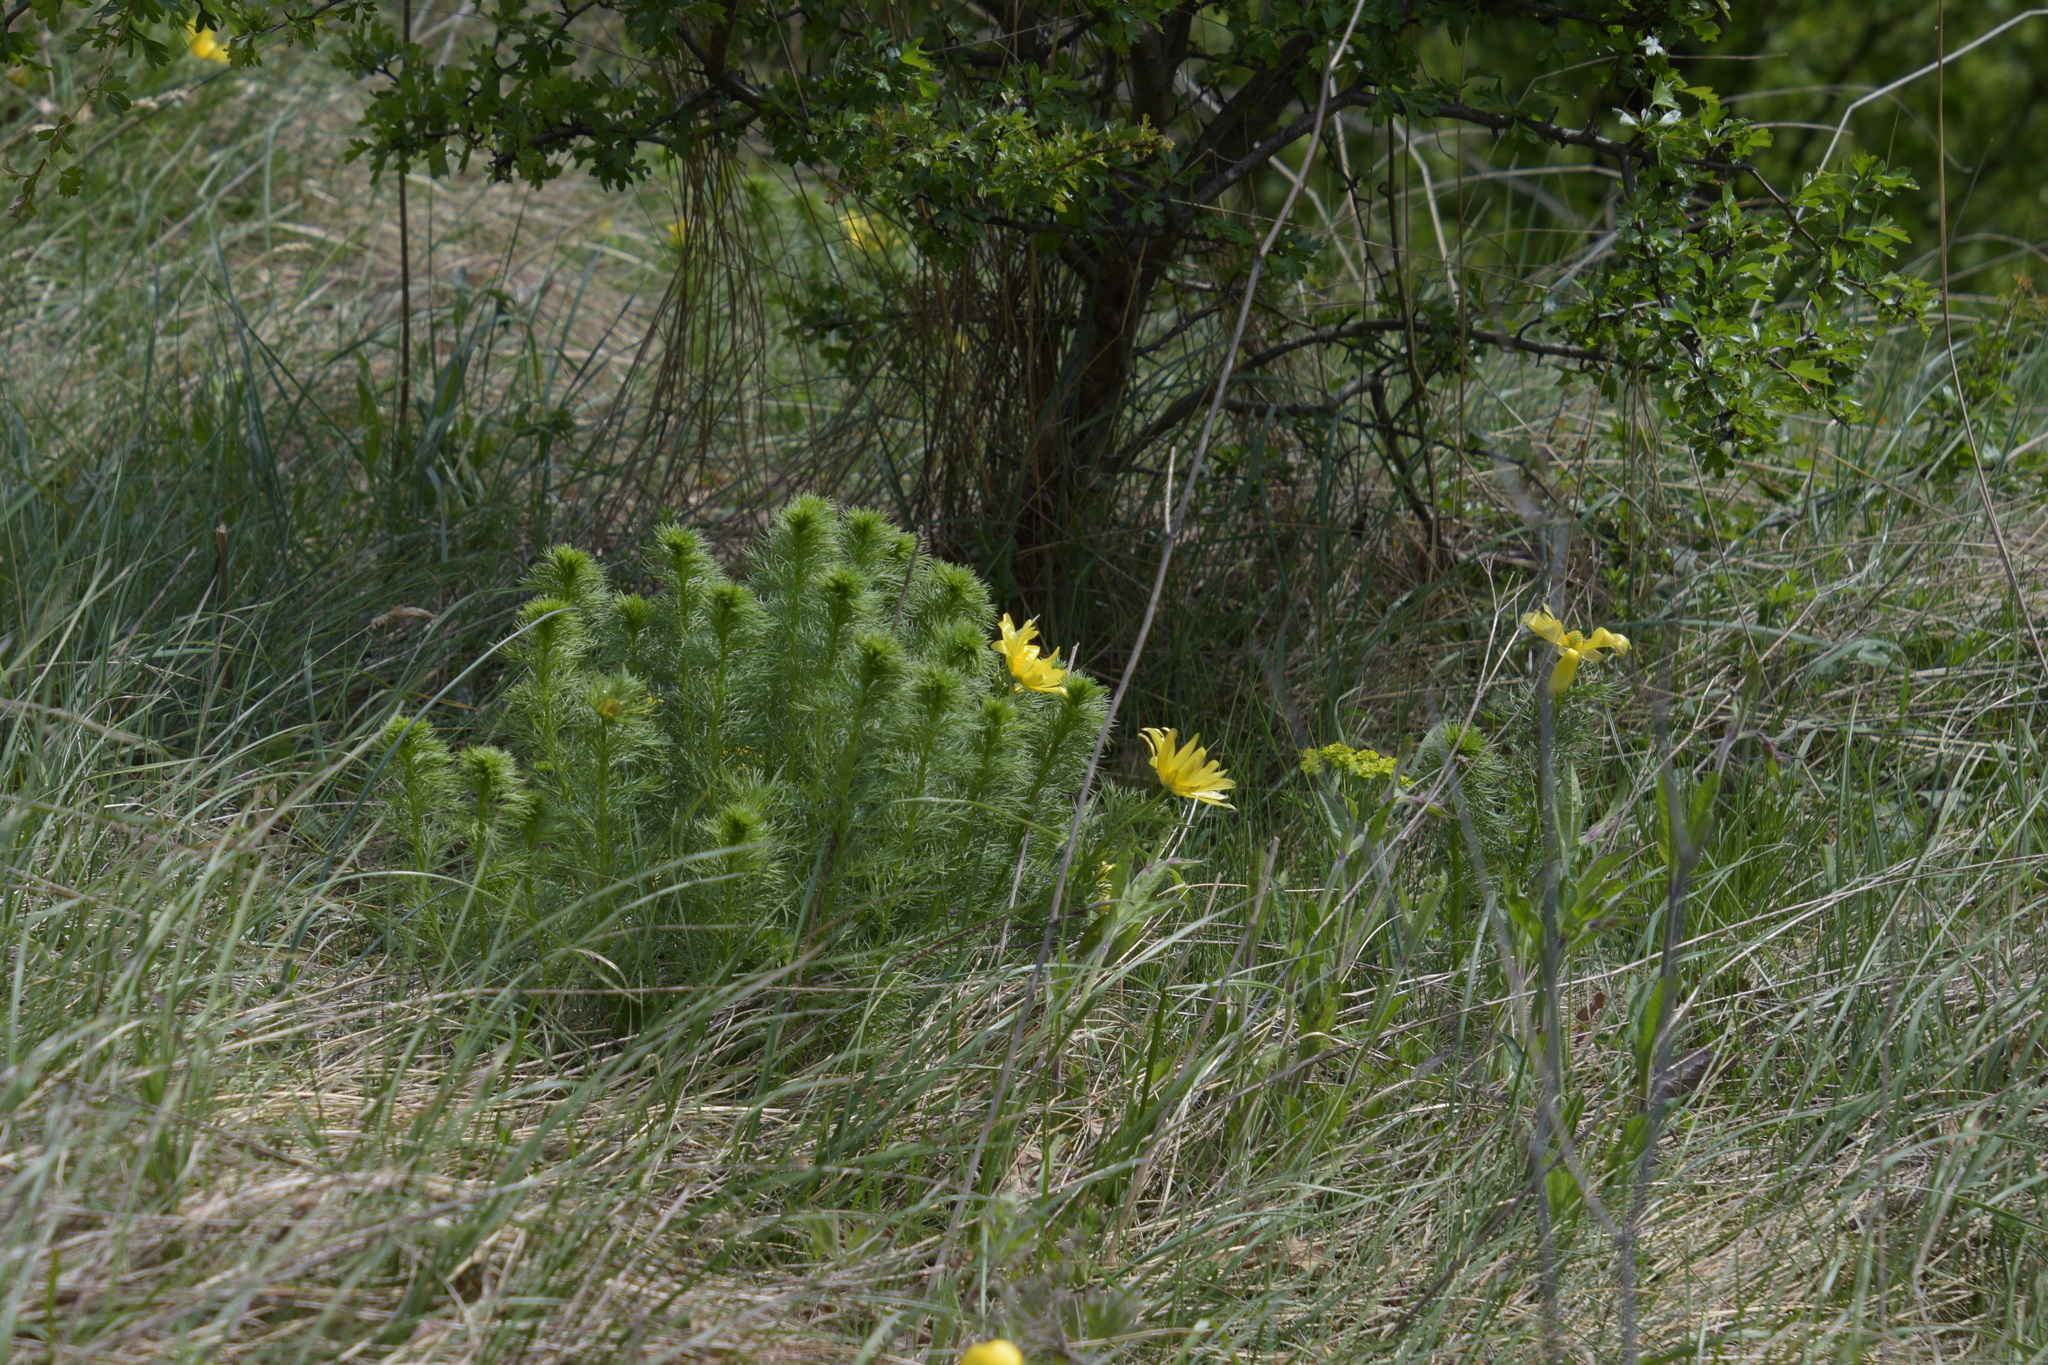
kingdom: Plantae
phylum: Tracheophyta
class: Magnoliopsida
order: Ranunculales
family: Ranunculaceae
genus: Adonis
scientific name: Adonis vernalis
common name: Yellow pheasants-eye
